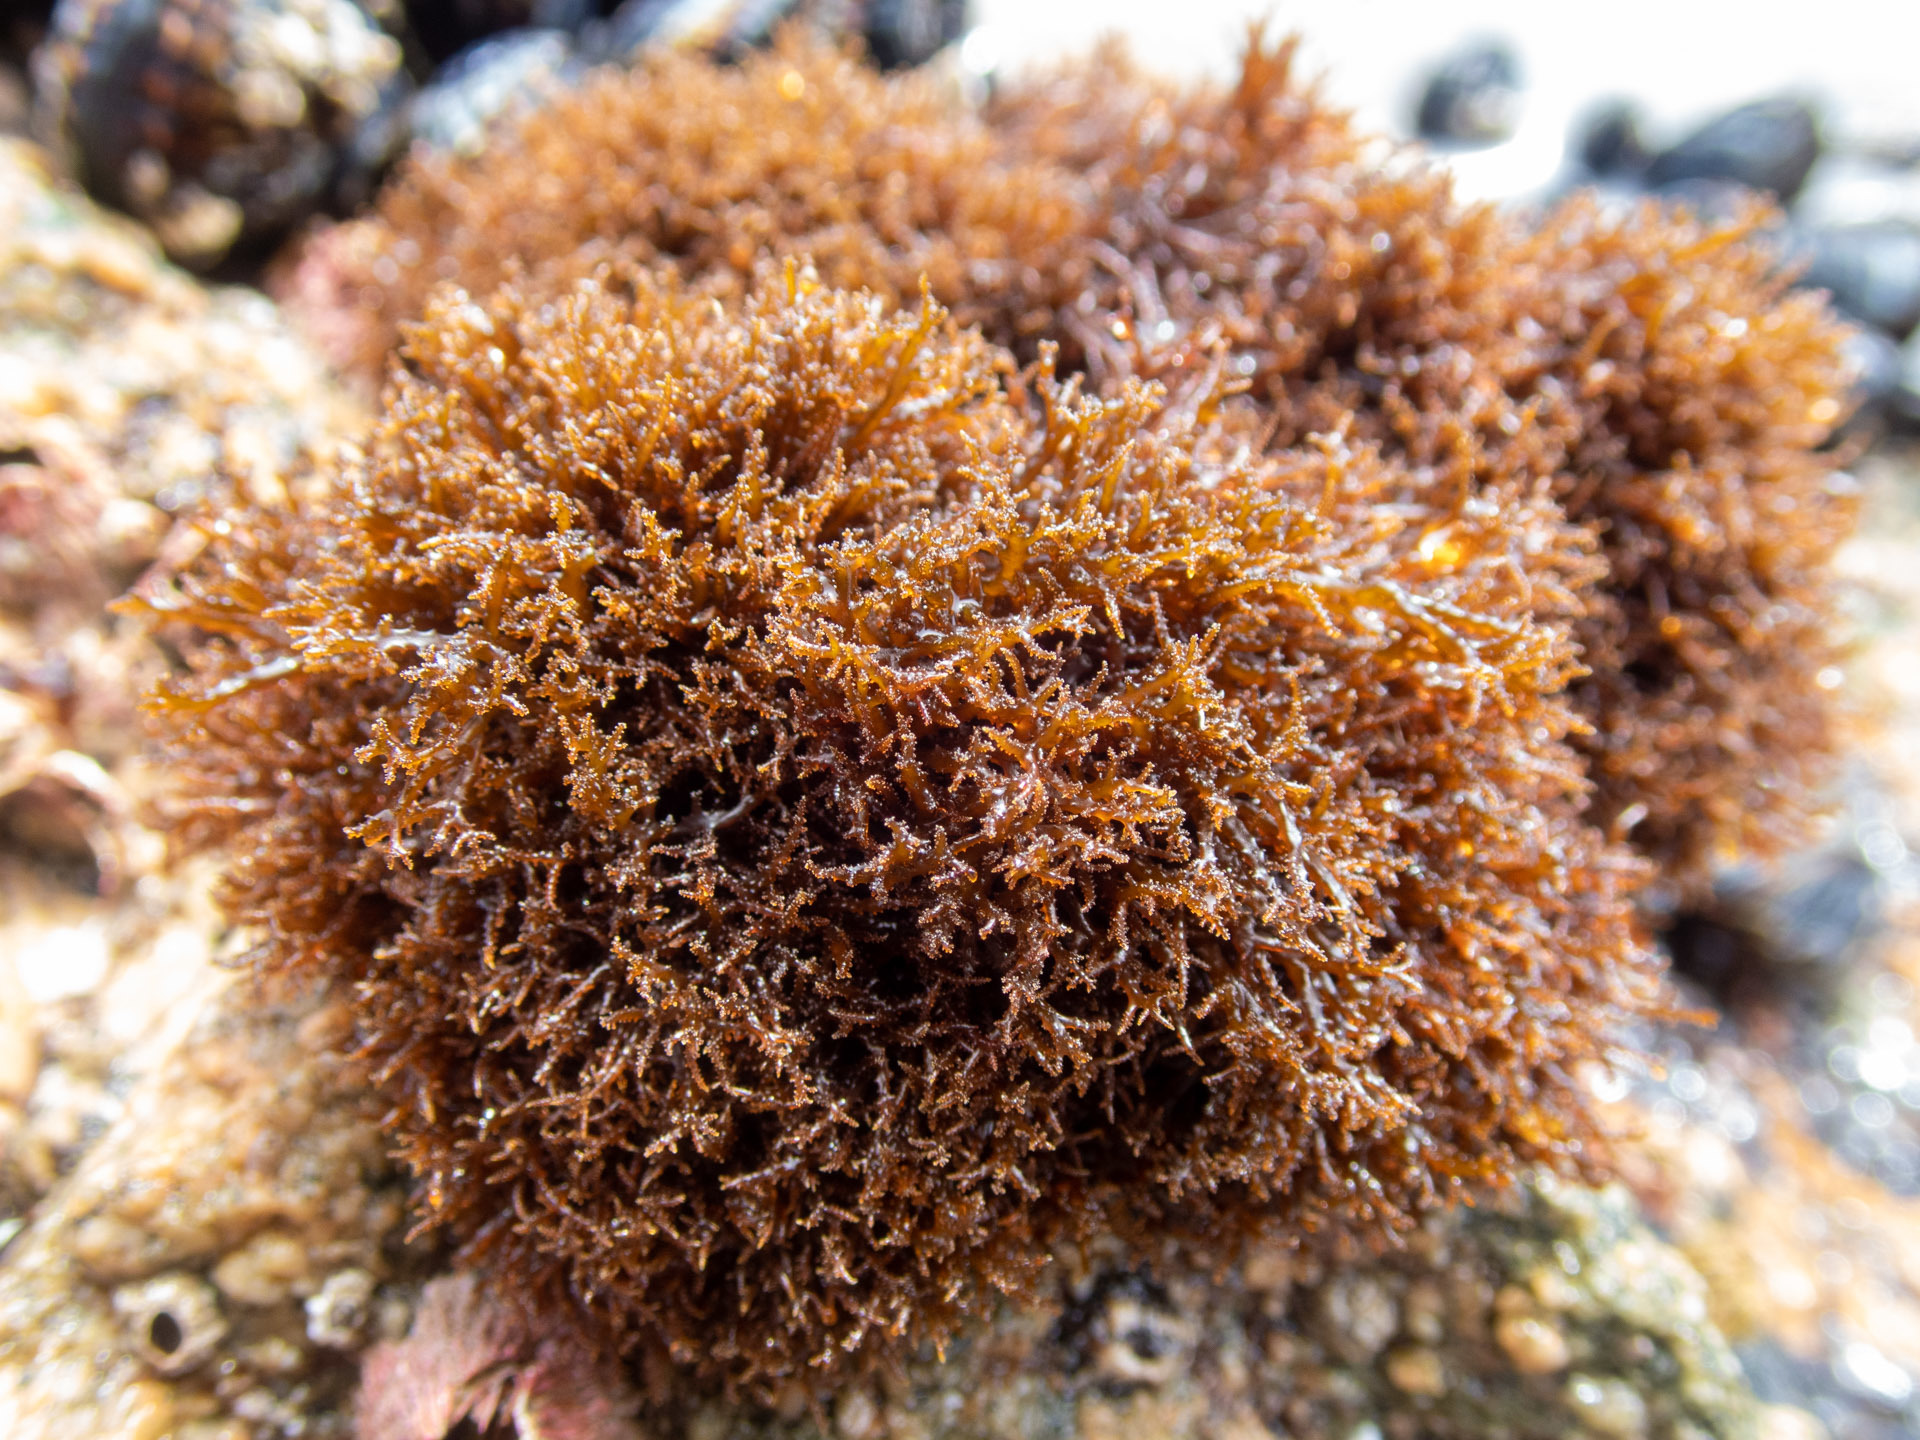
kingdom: Plantae
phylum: Rhodophyta
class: Florideophyceae
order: Gigartinales
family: Endocladiaceae
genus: Endocladia
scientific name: Endocladia muricata
